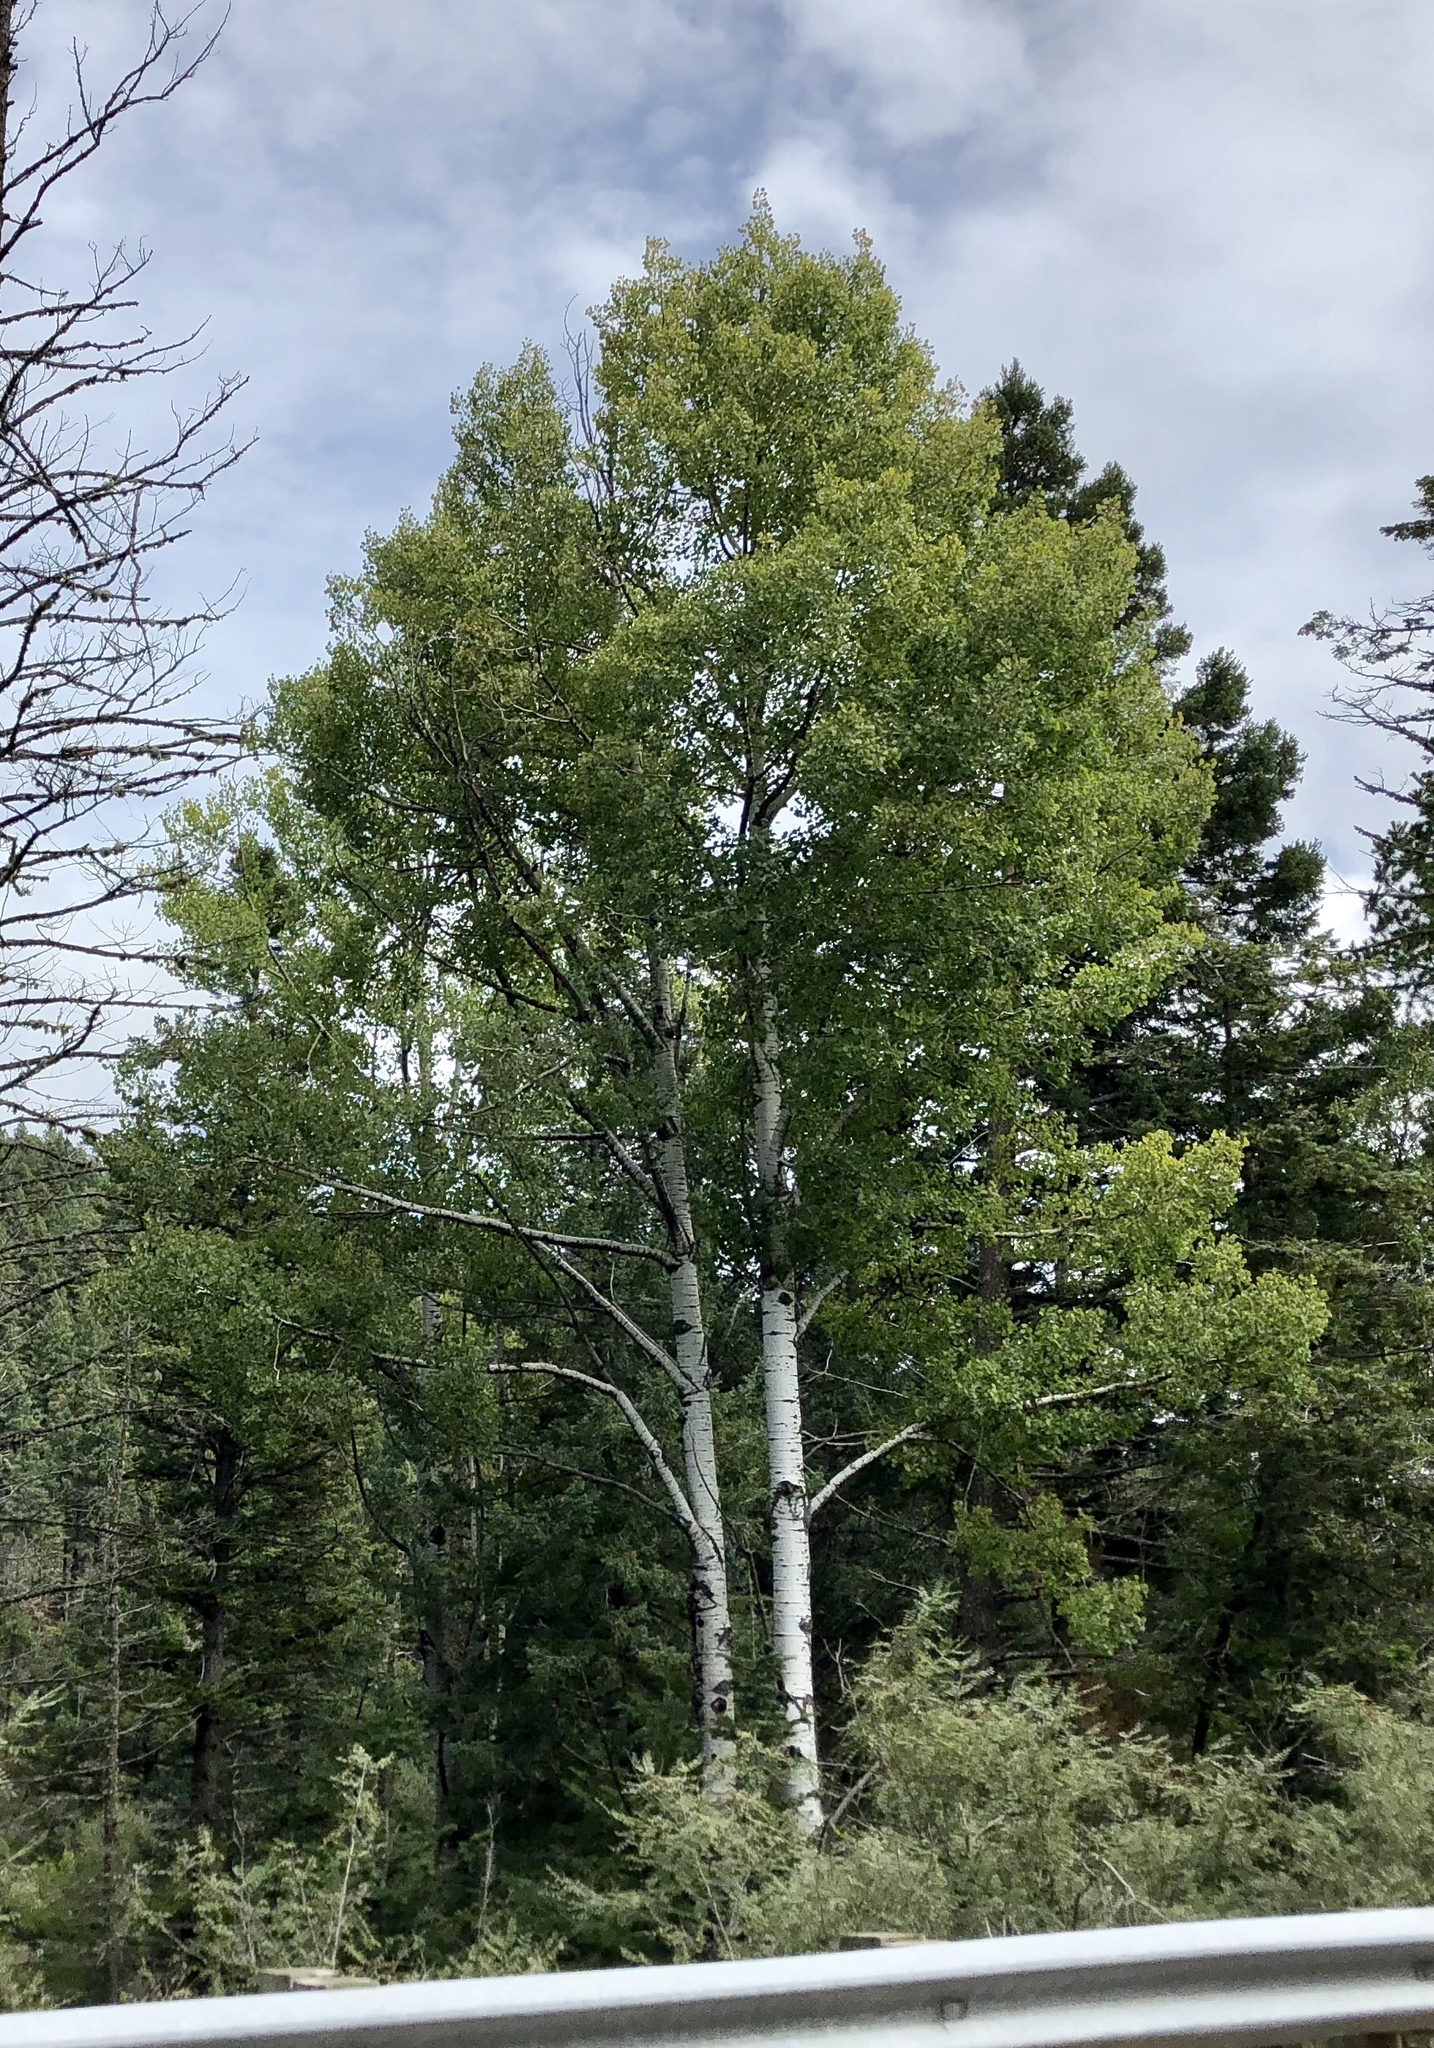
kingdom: Plantae
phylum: Tracheophyta
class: Magnoliopsida
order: Malpighiales
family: Salicaceae
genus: Populus
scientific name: Populus tremuloides
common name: Quaking aspen
